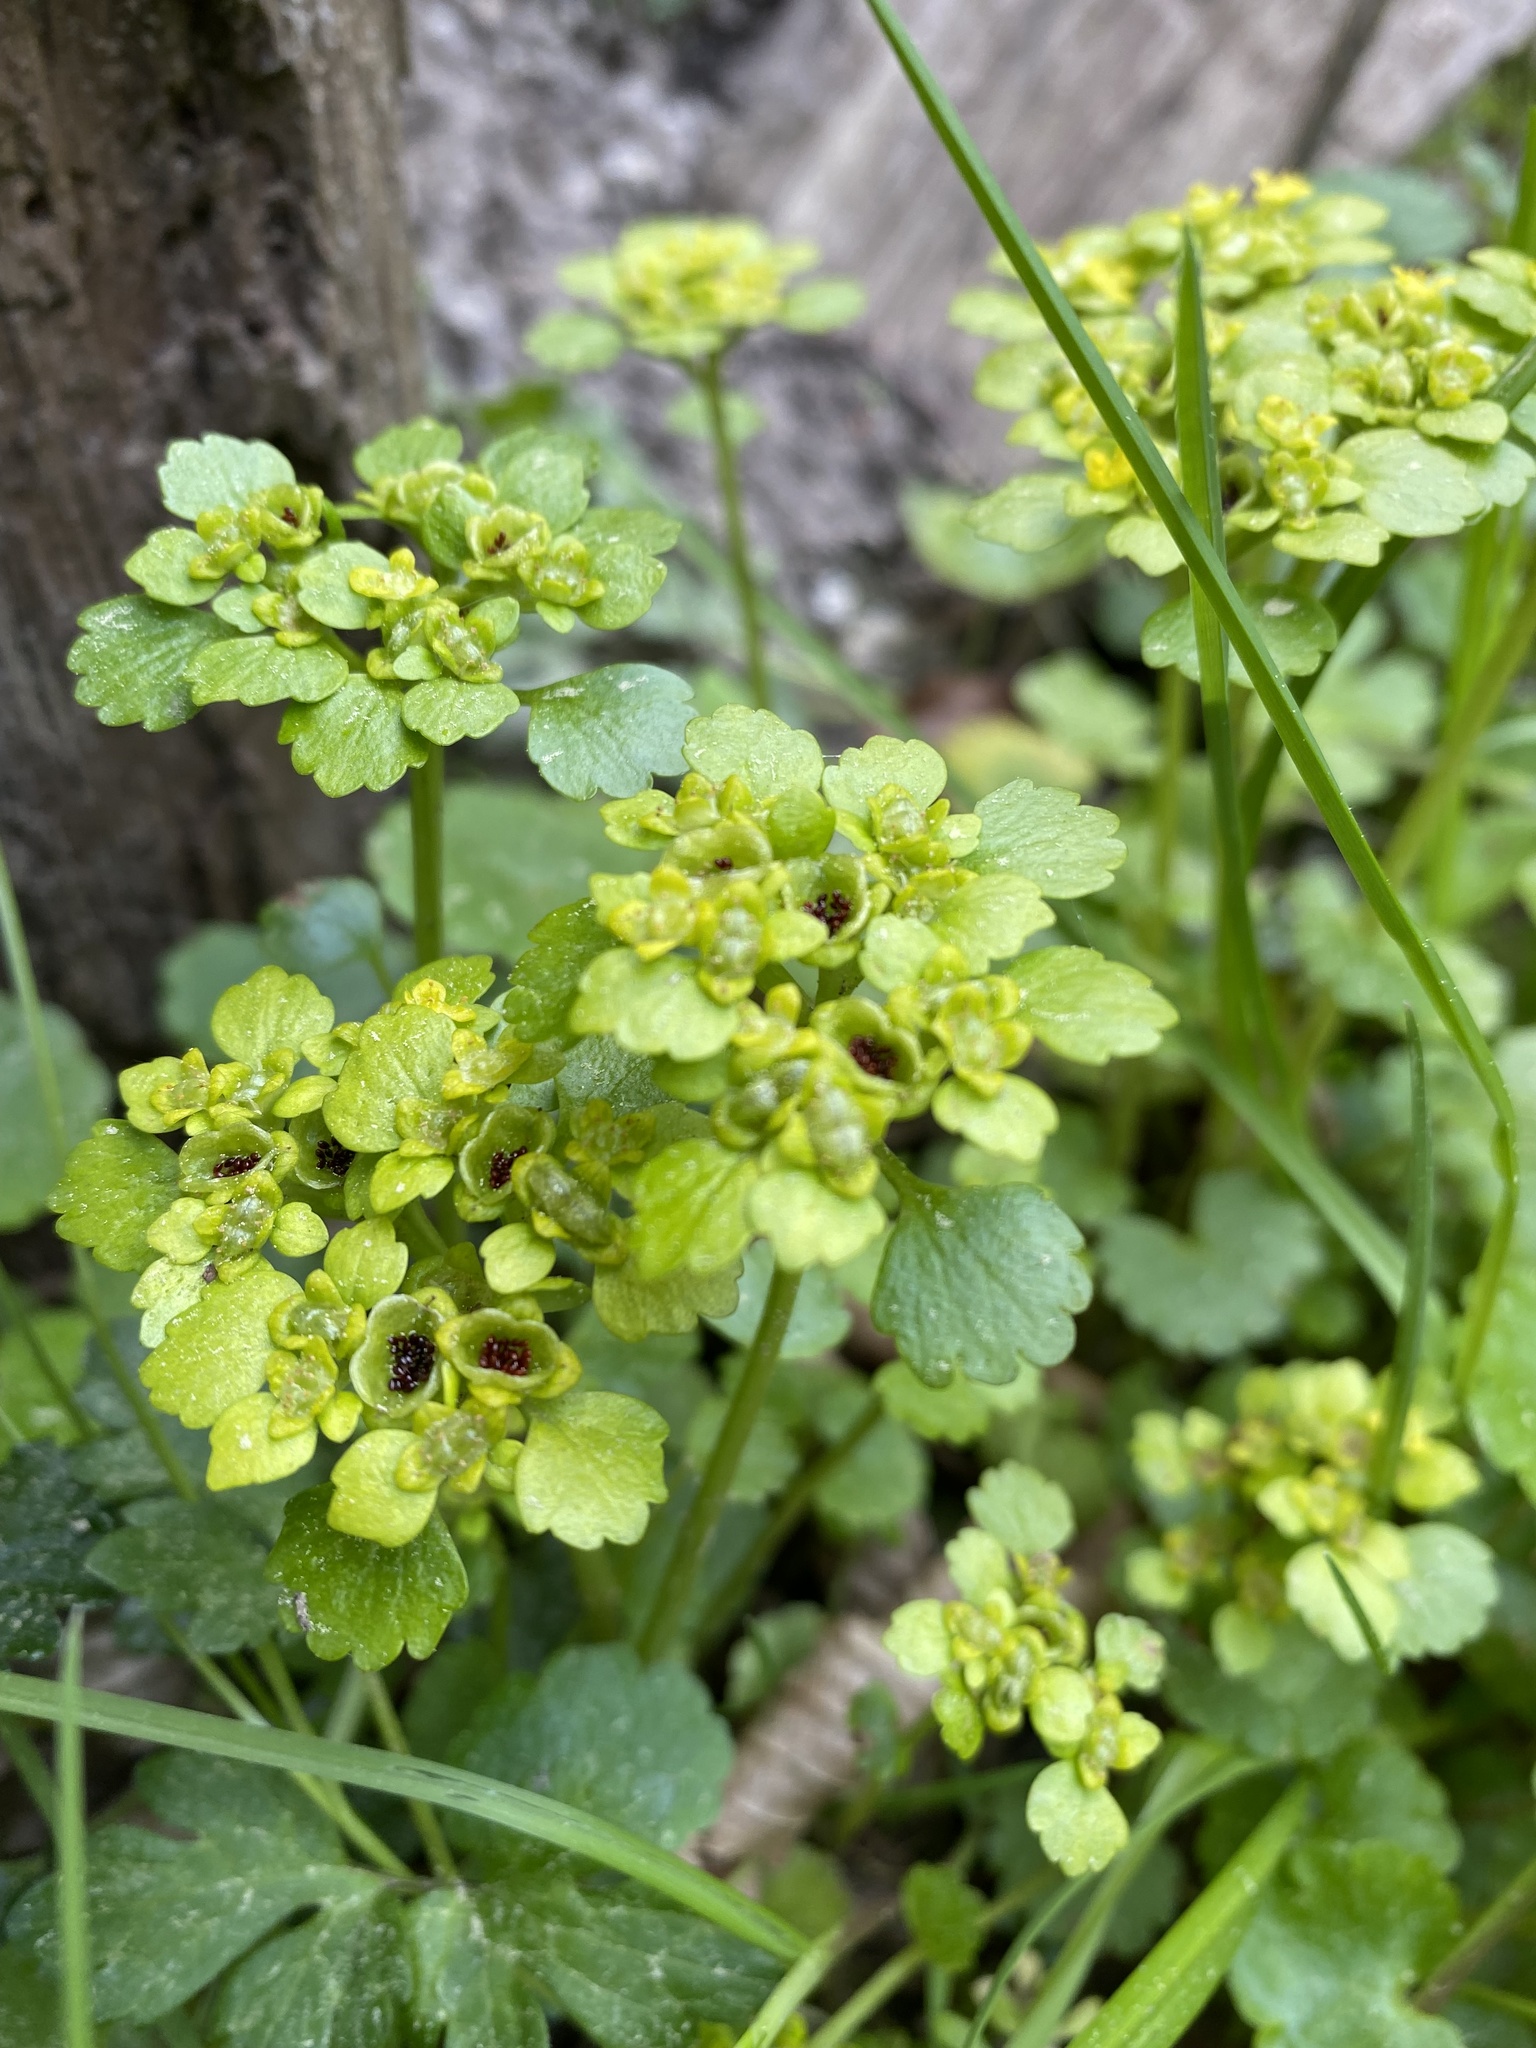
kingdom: Plantae
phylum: Tracheophyta
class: Magnoliopsida
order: Saxifragales
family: Saxifragaceae
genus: Chrysosplenium
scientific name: Chrysosplenium alternifolium
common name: Alternate-leaved golden-saxifrage
